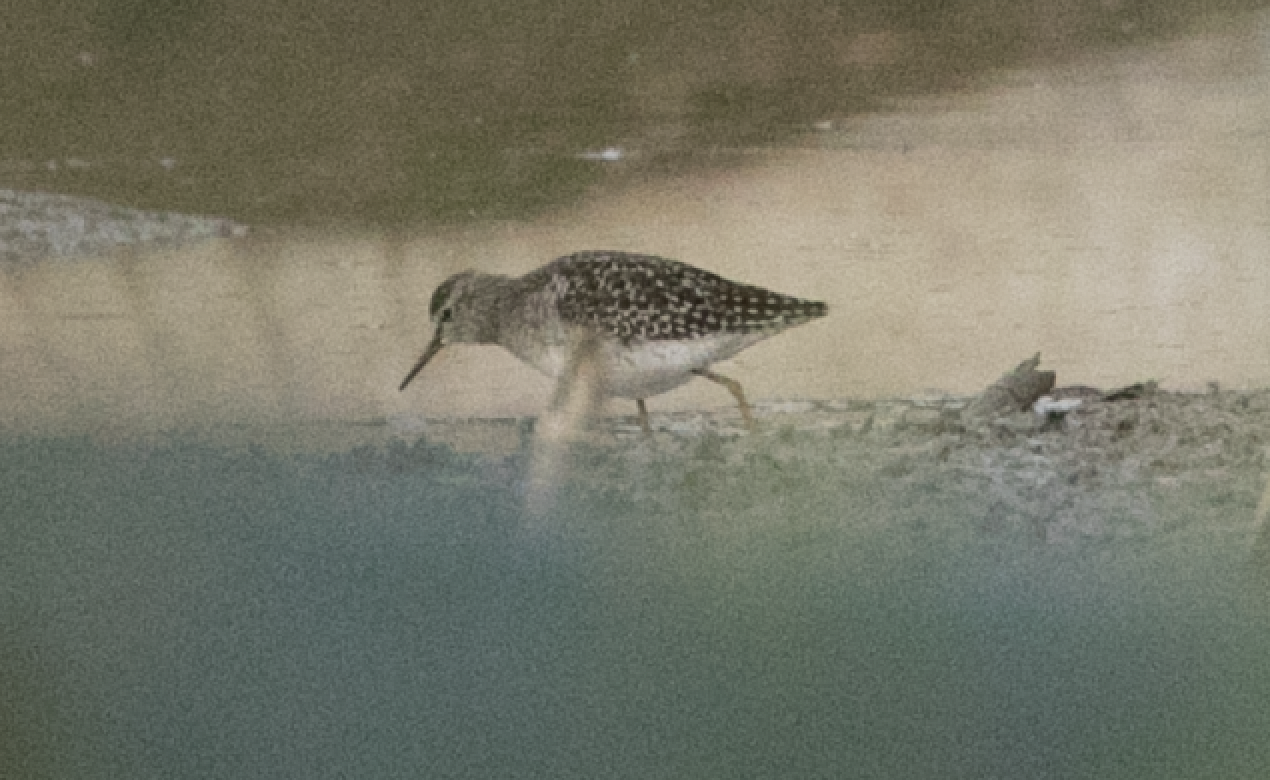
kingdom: Animalia
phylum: Chordata
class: Aves
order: Charadriiformes
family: Scolopacidae
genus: Tringa
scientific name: Tringa glareola
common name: Wood sandpiper
